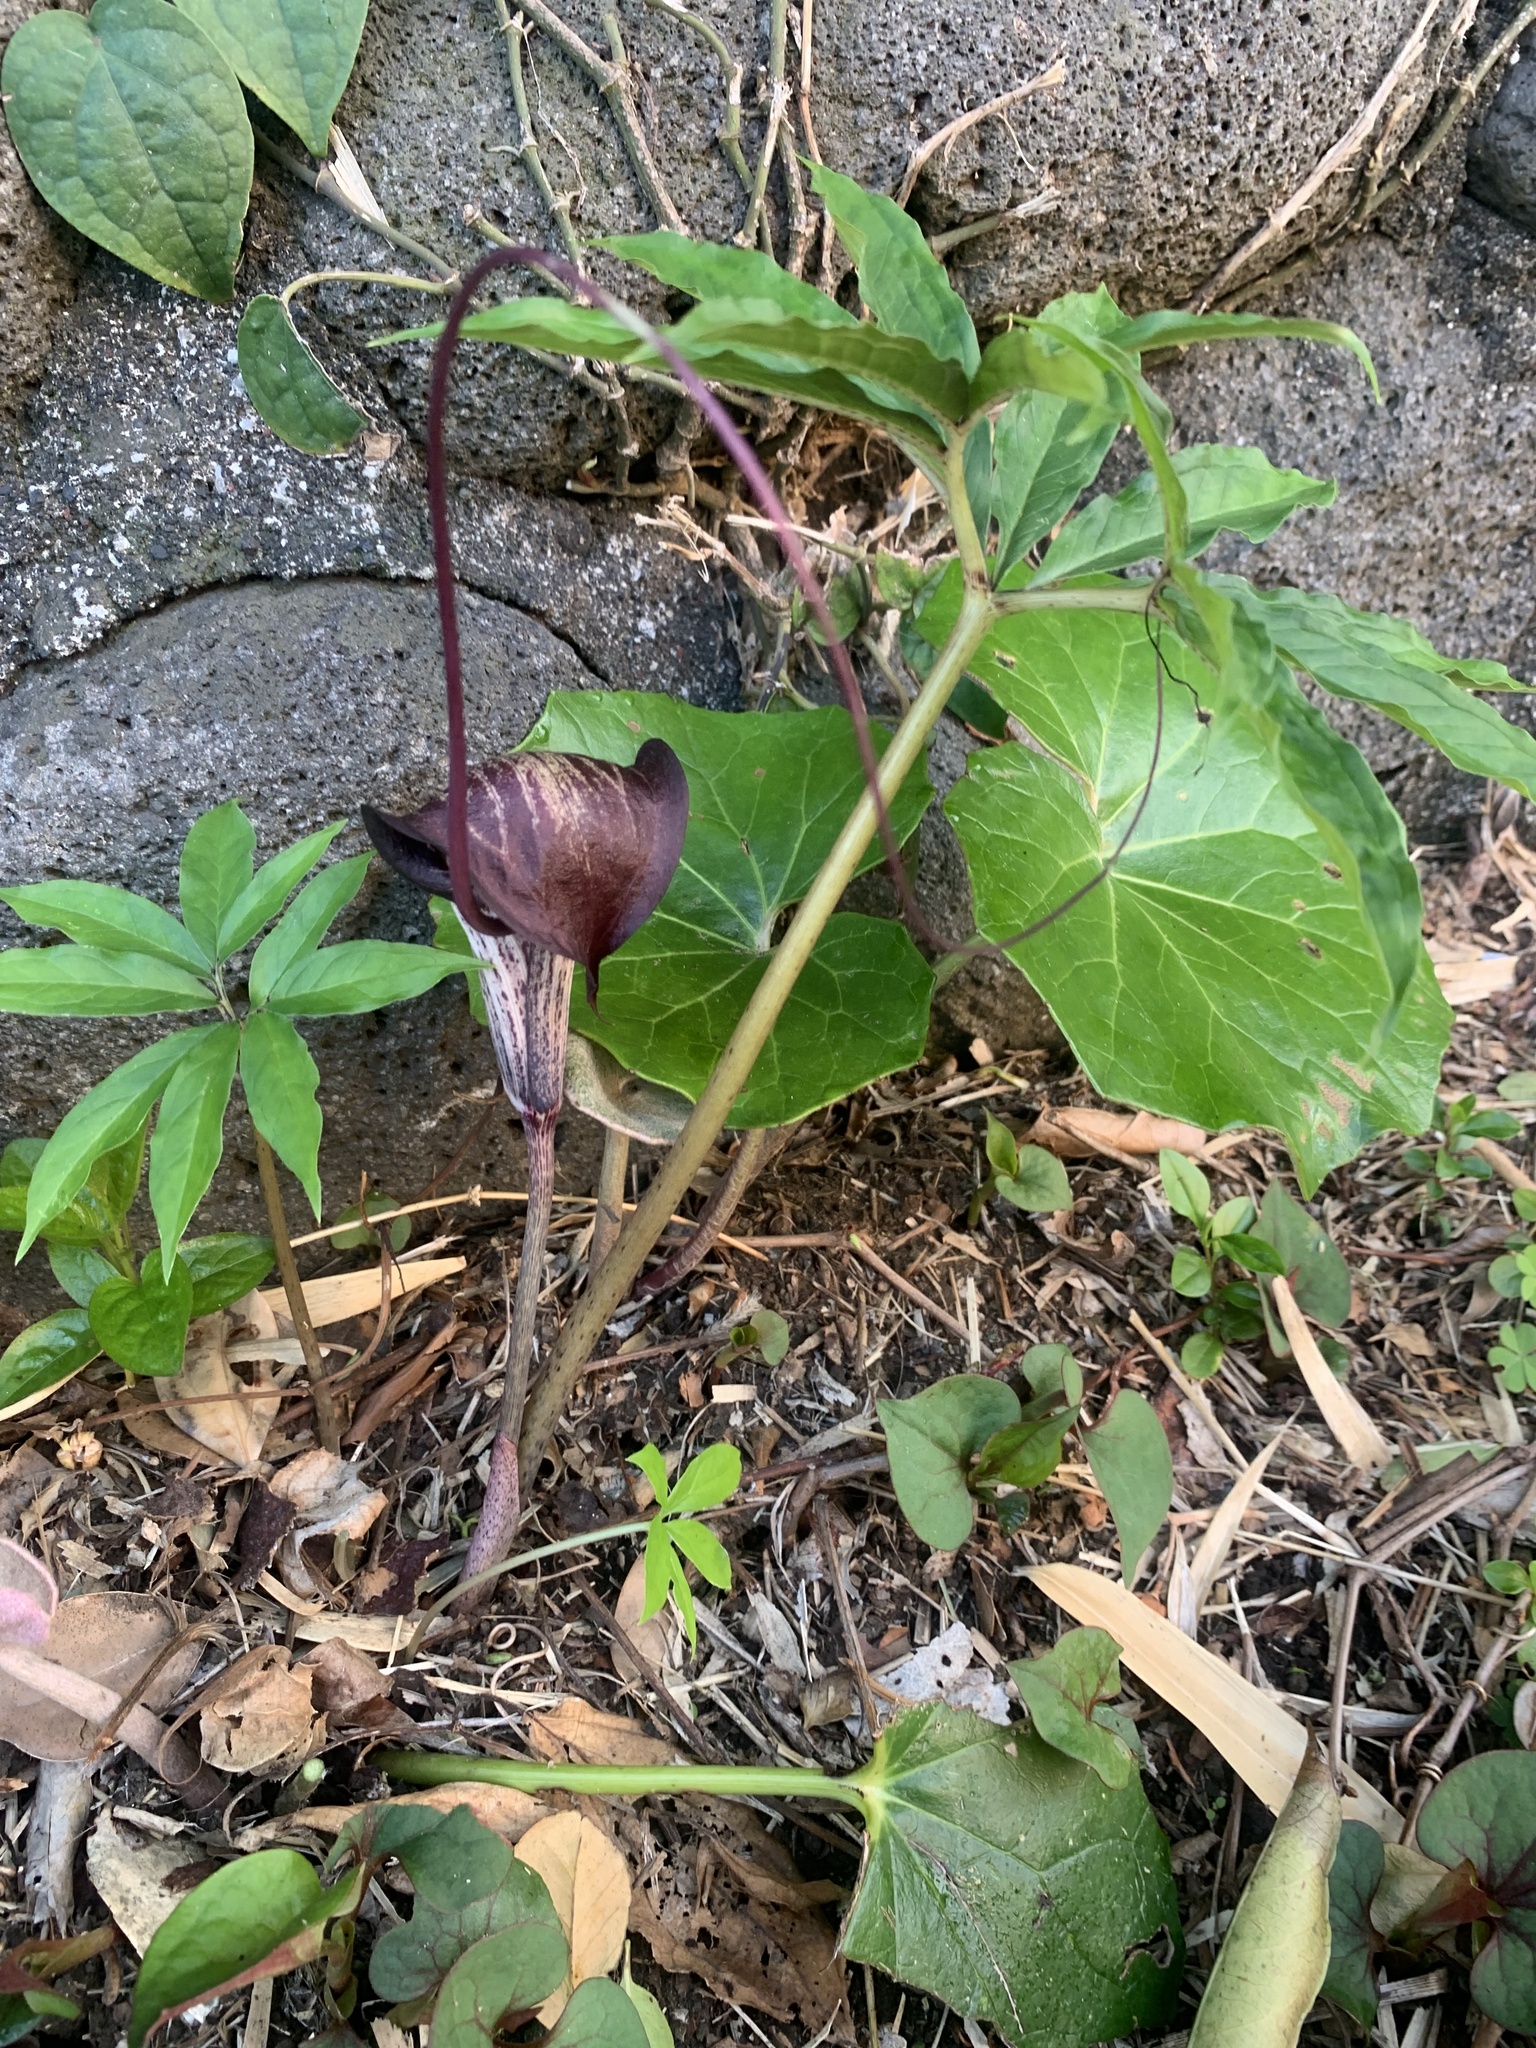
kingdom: Plantae
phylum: Tracheophyta
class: Liliopsida
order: Alismatales
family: Araceae
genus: Arisaema
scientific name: Arisaema thunbergii
